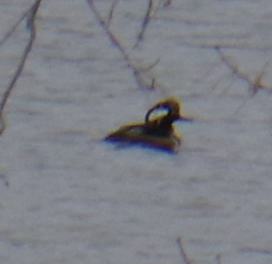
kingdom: Animalia
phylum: Chordata
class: Aves
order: Anseriformes
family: Anatidae
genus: Lophodytes
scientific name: Lophodytes cucullatus
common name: Hooded merganser
